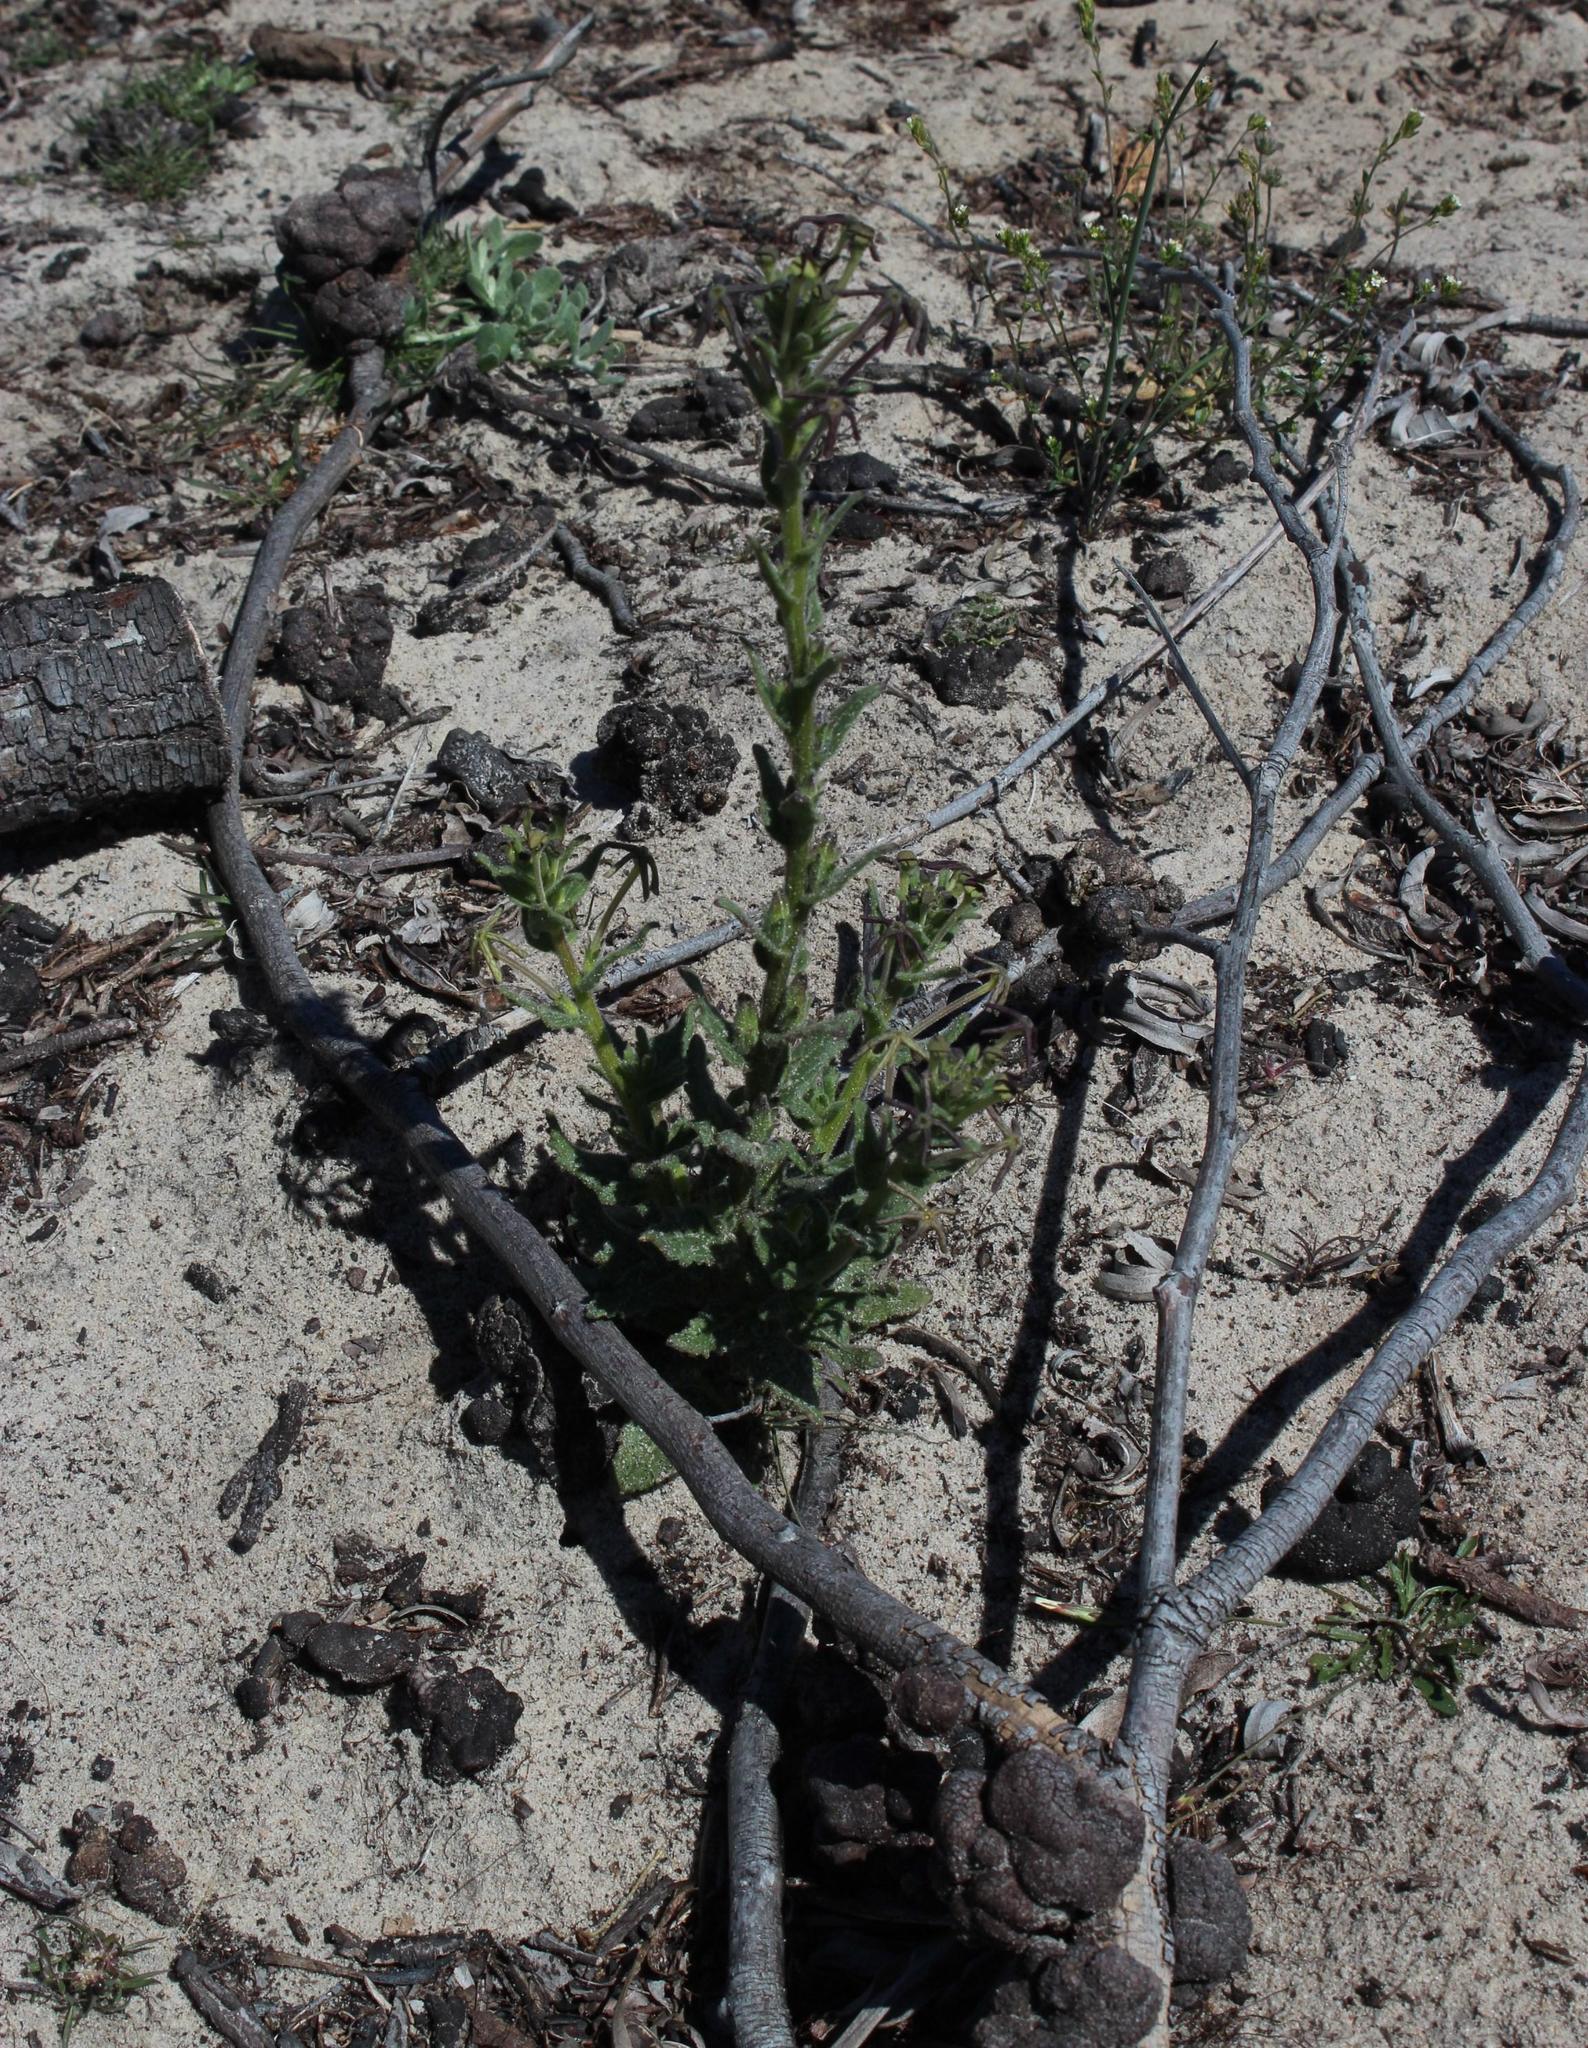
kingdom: Plantae
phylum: Tracheophyta
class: Magnoliopsida
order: Lamiales
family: Scrophulariaceae
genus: Lyperia
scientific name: Lyperia tristis
